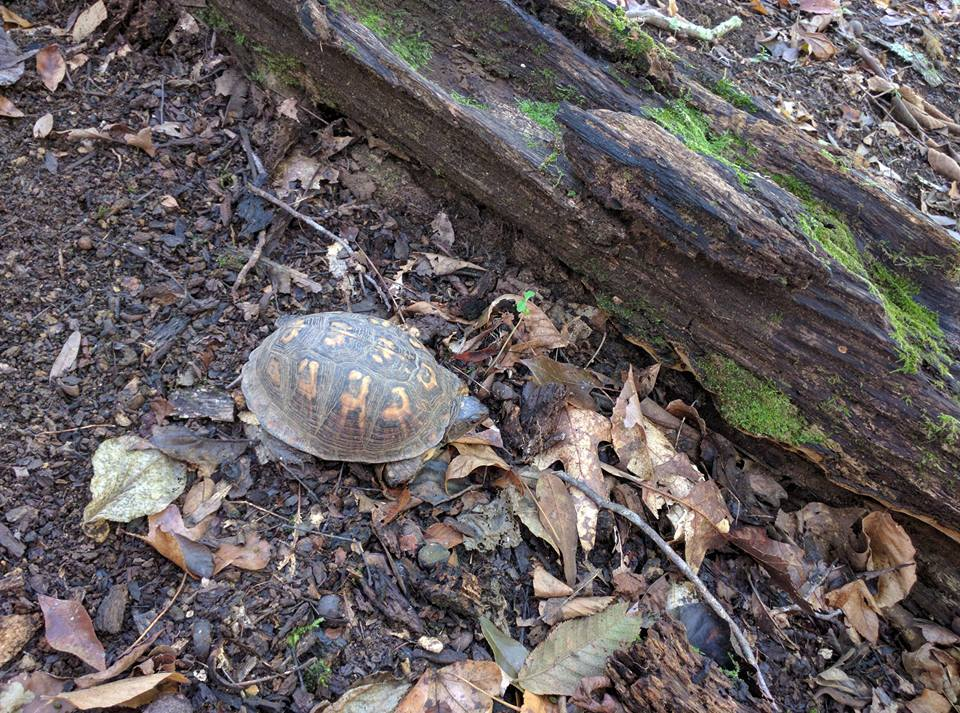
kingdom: Animalia
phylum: Chordata
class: Testudines
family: Emydidae
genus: Terrapene
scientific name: Terrapene carolina
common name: Common box turtle
